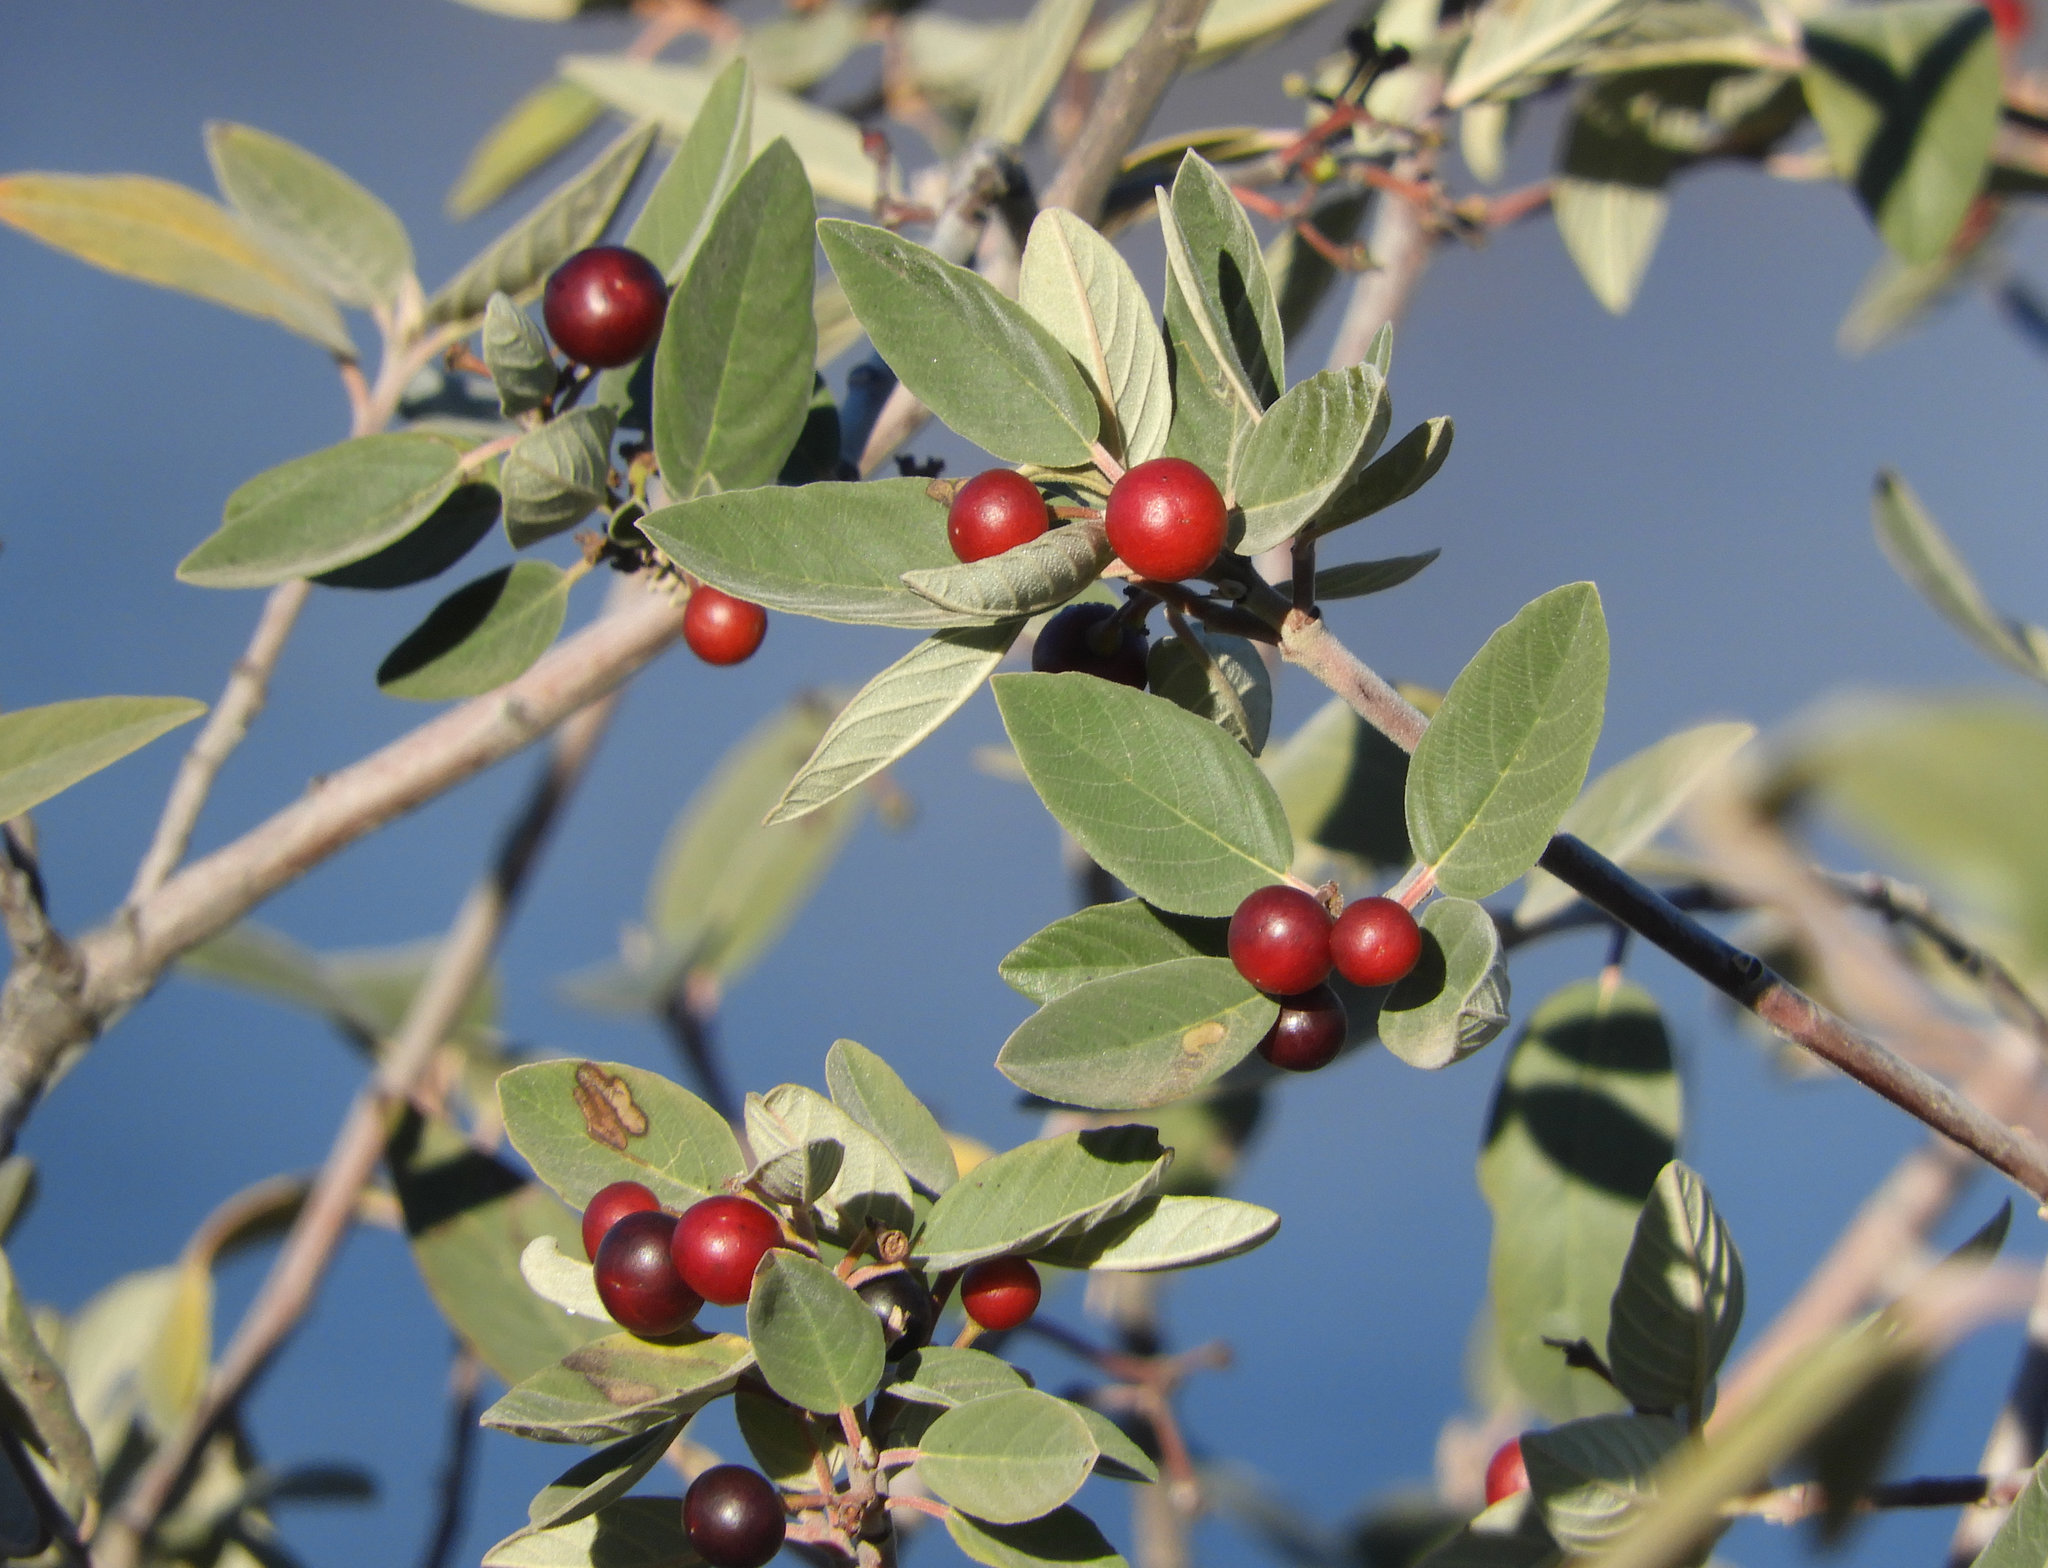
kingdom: Plantae
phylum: Tracheophyta
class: Magnoliopsida
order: Rosales
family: Rhamnaceae
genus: Frangula
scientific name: Frangula californica
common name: California buckthorn
